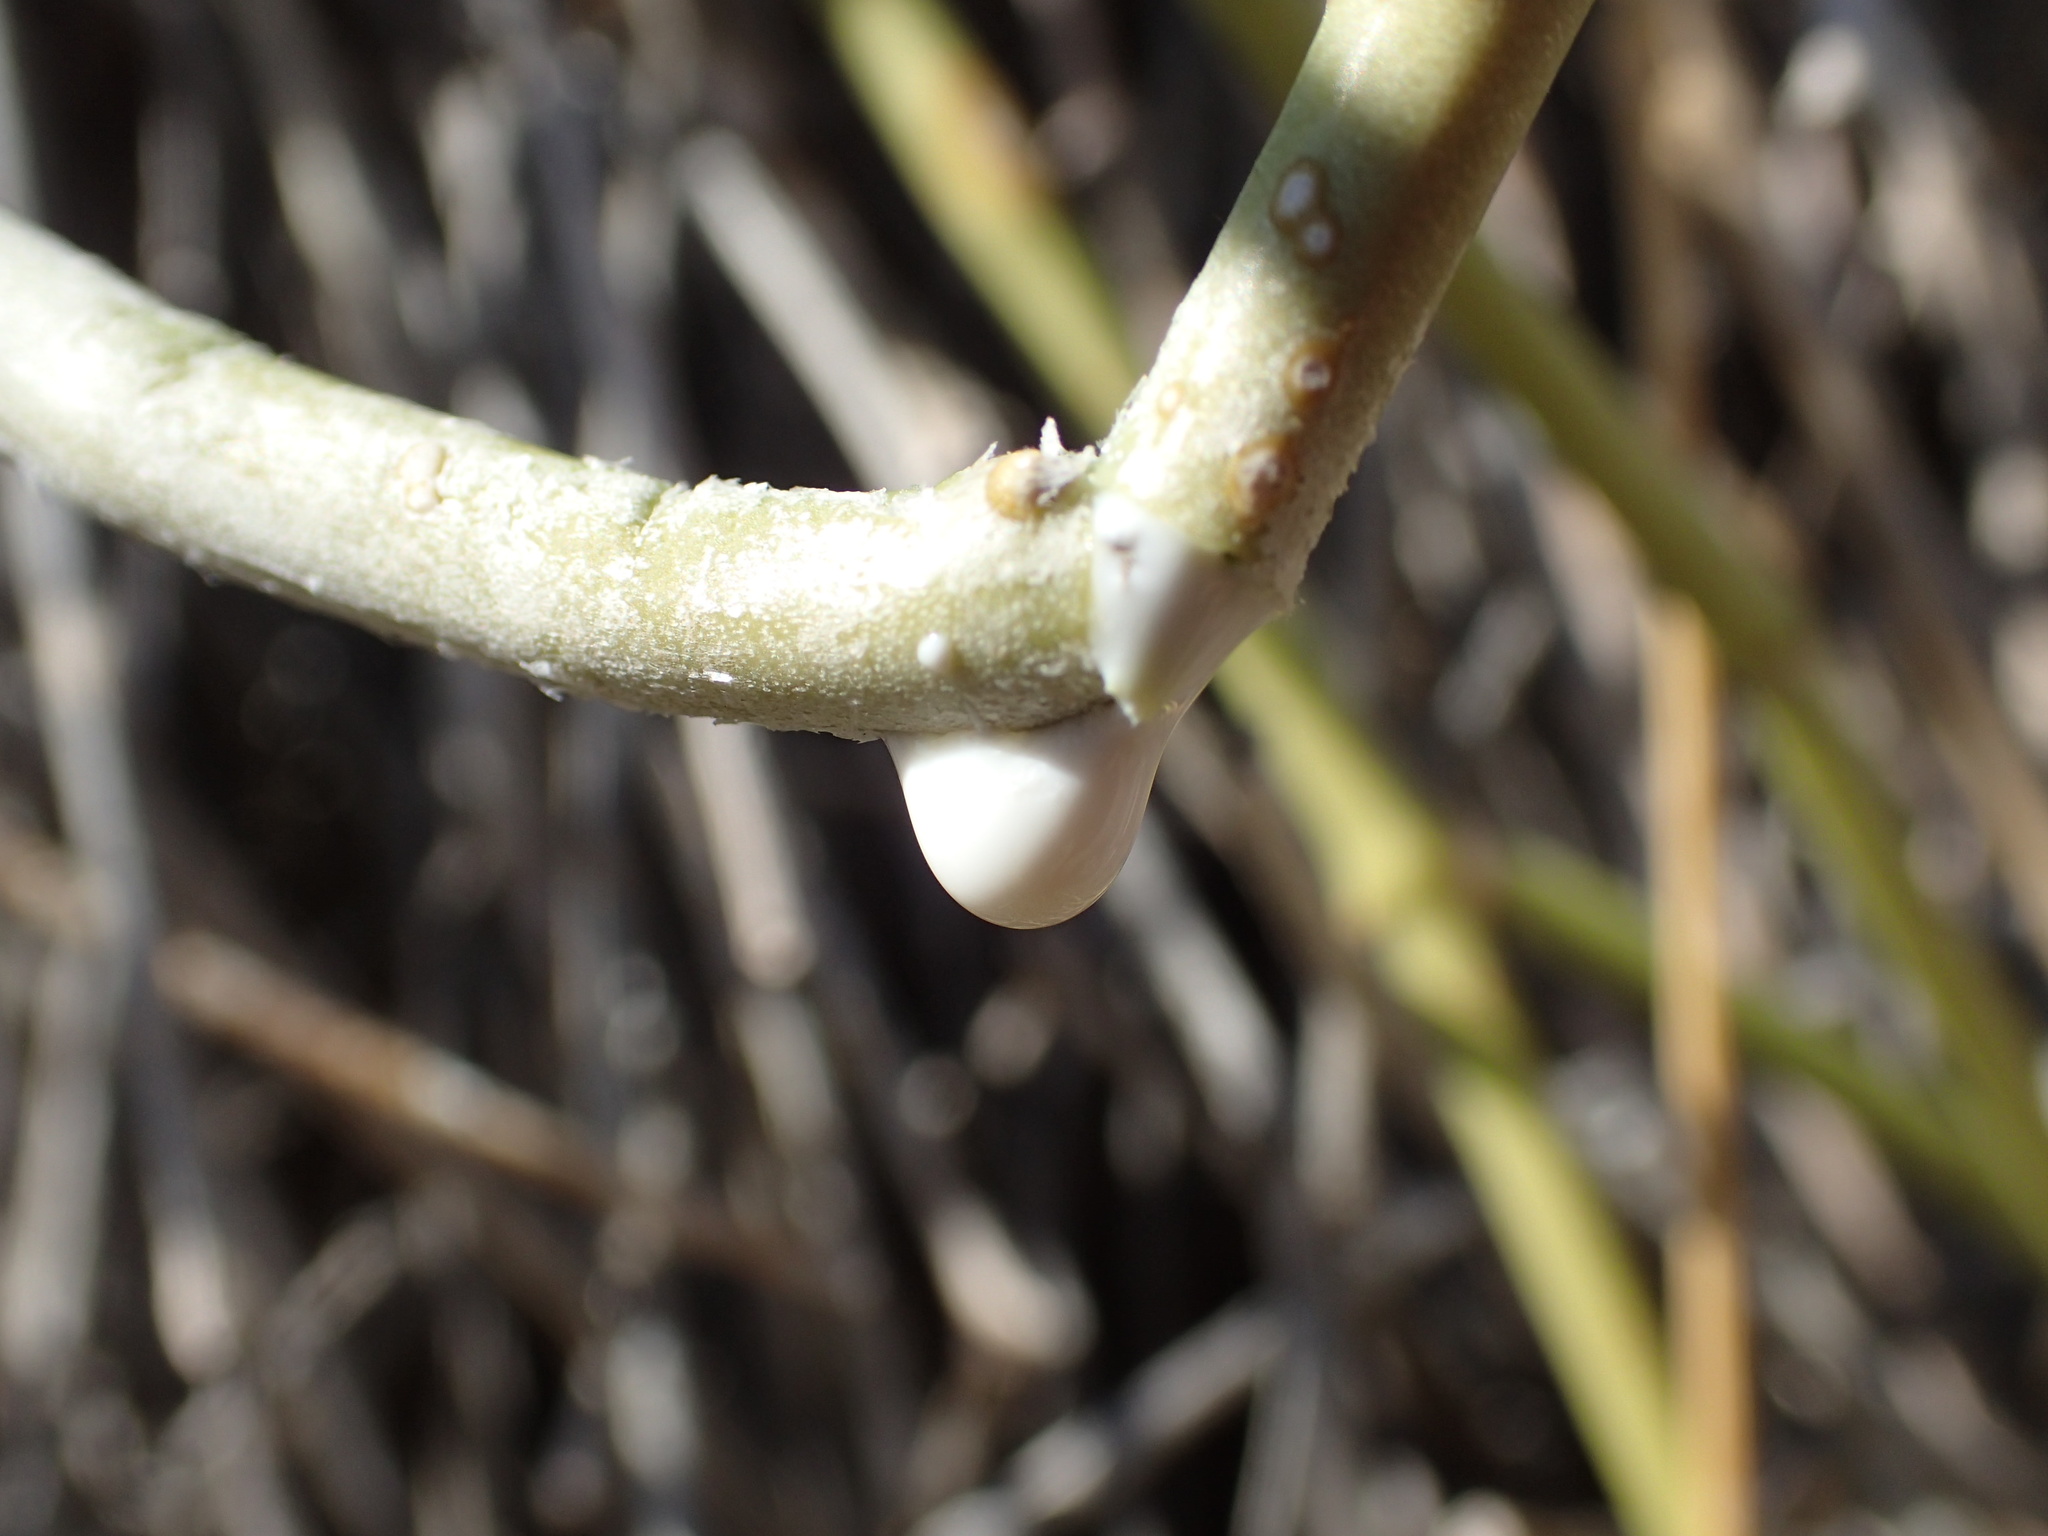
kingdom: Plantae
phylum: Tracheophyta
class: Magnoliopsida
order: Gentianales
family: Apocynaceae
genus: Cynanchum
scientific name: Cynanchum viminale
